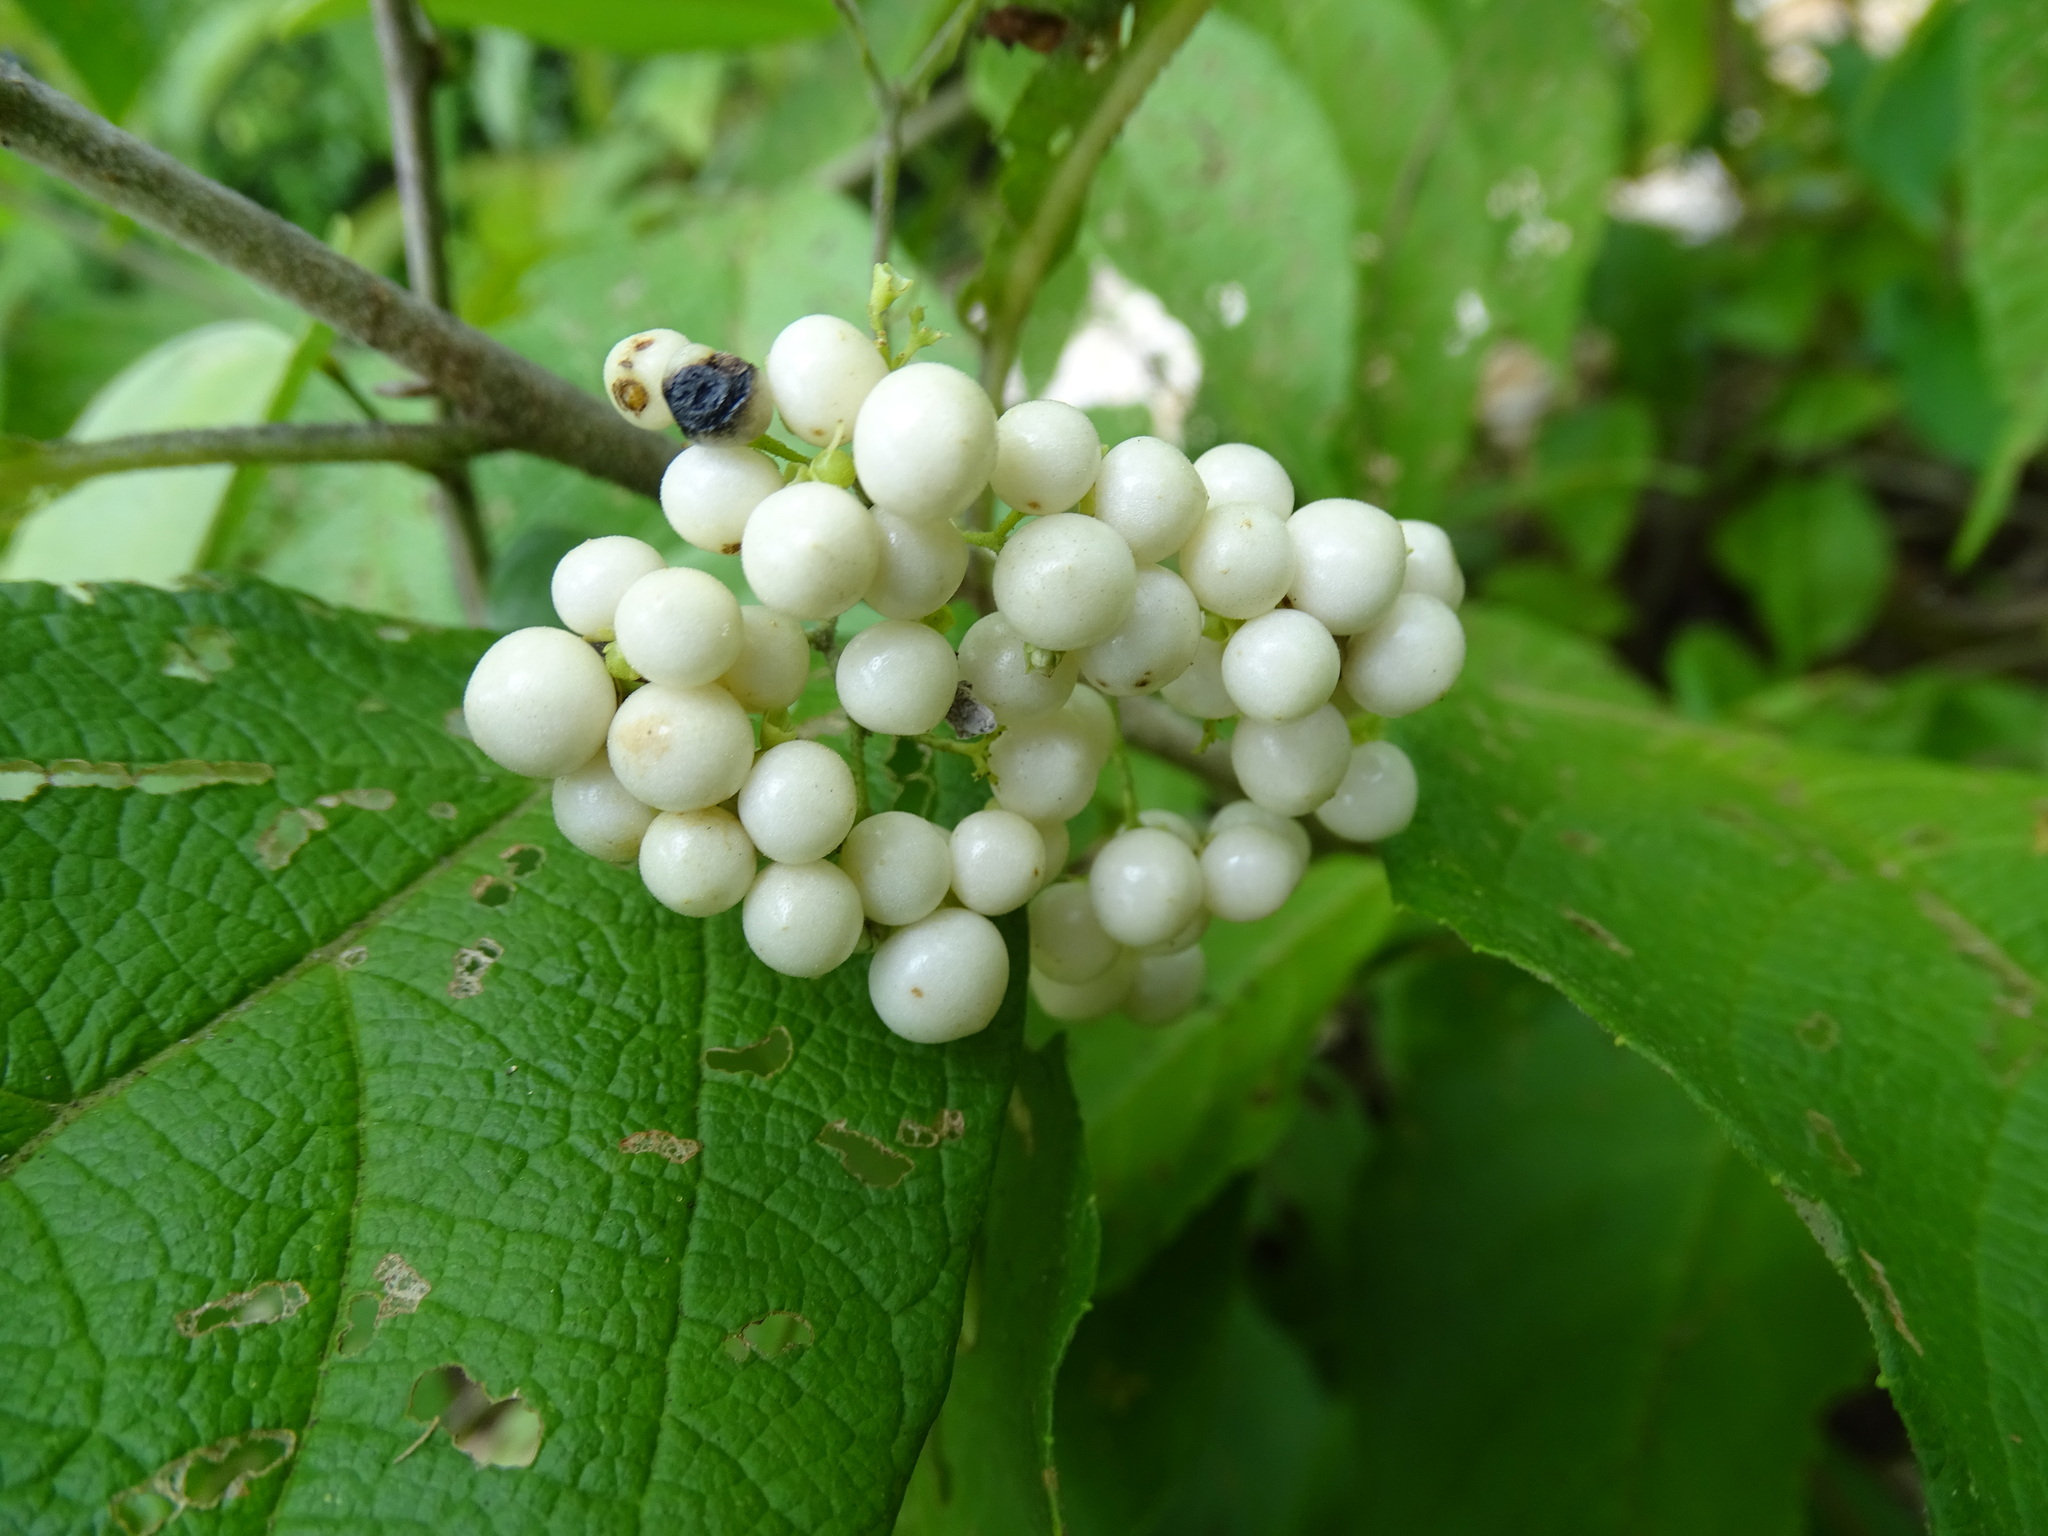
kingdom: Plantae
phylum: Tracheophyta
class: Magnoliopsida
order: Lamiales
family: Lamiaceae
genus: Callicarpa
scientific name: Callicarpa acuminata
